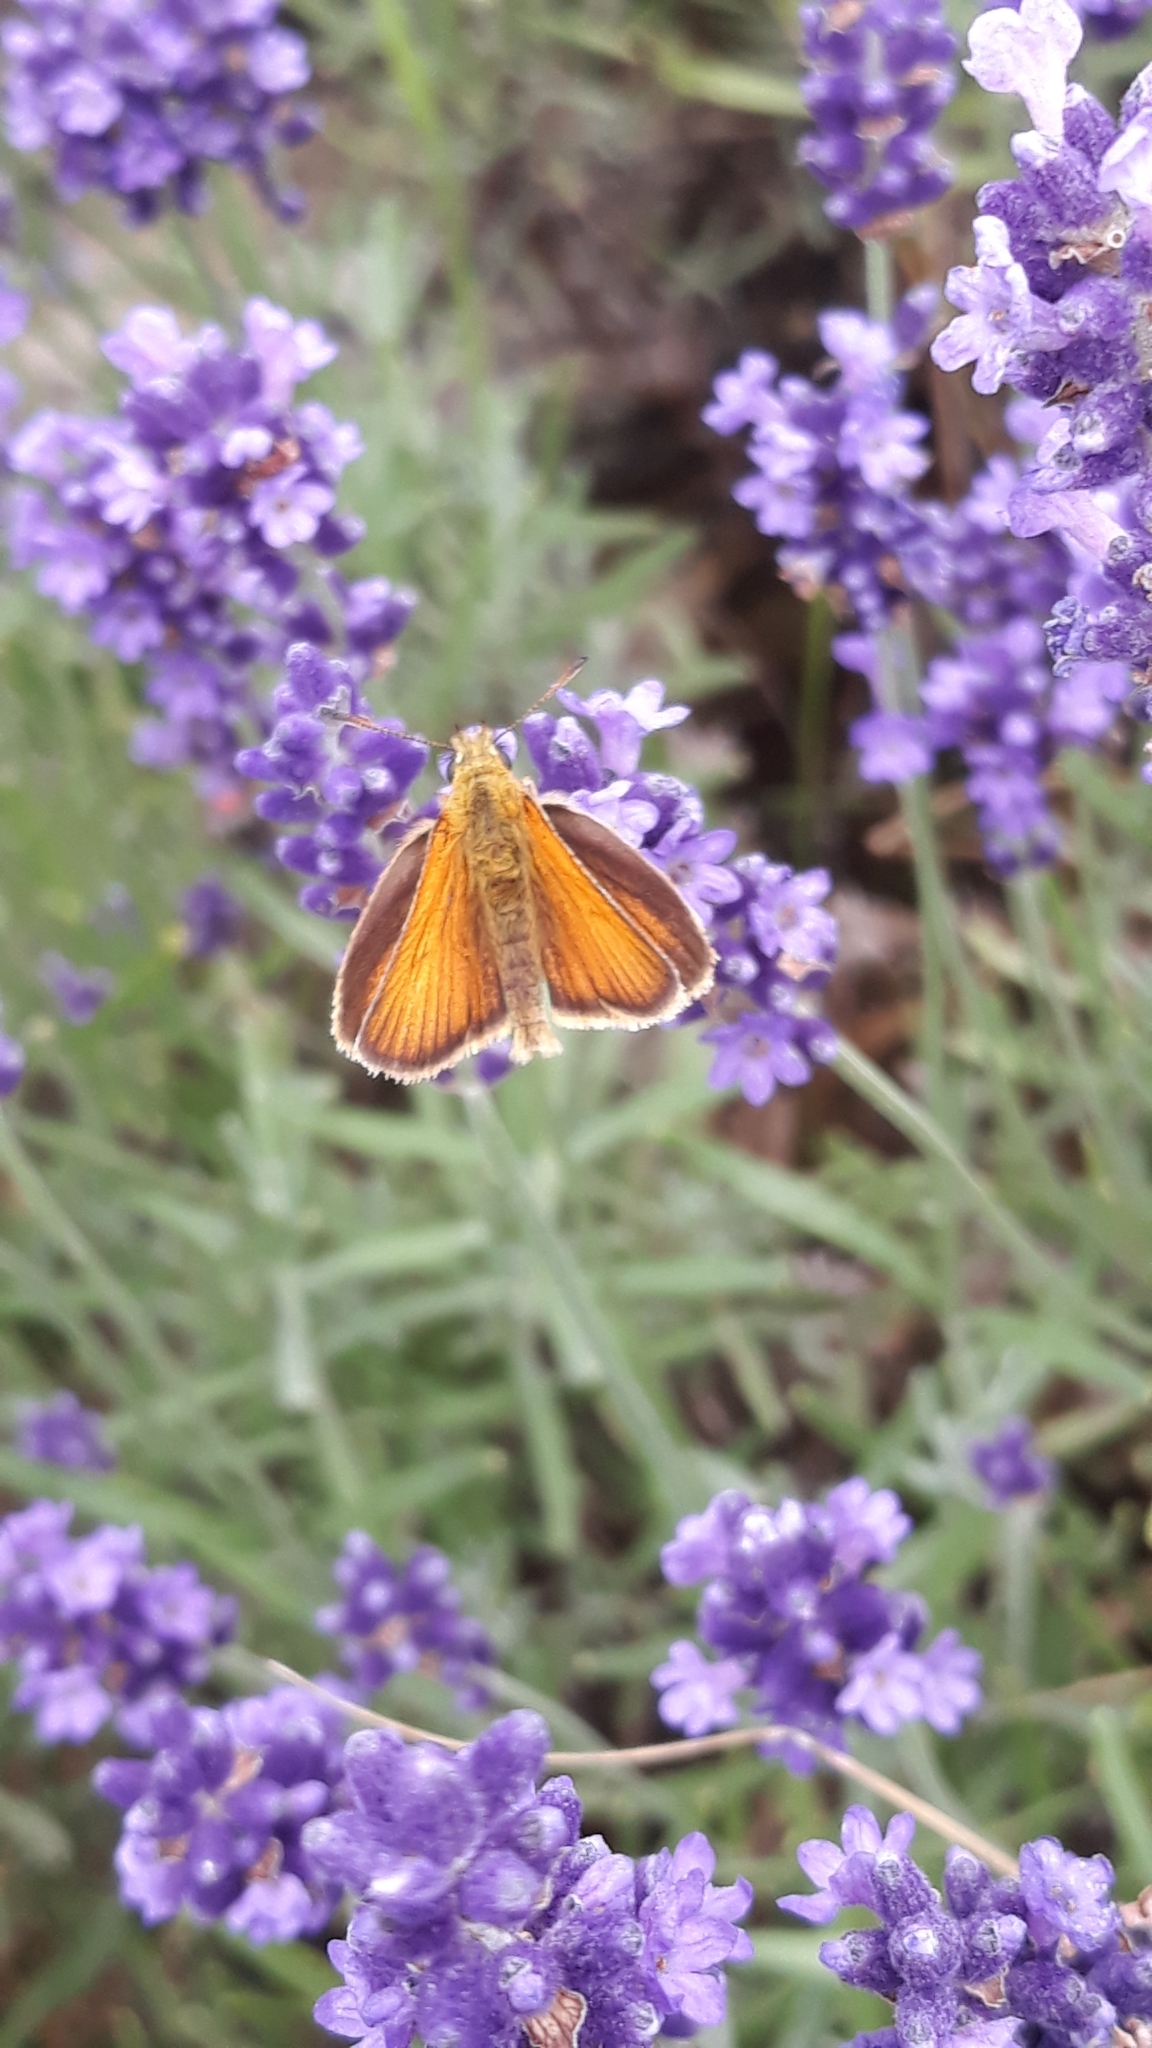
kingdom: Animalia
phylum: Arthropoda
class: Insecta
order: Lepidoptera
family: Hesperiidae
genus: Thymelicus
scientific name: Thymelicus lineola
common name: Essex skipper
